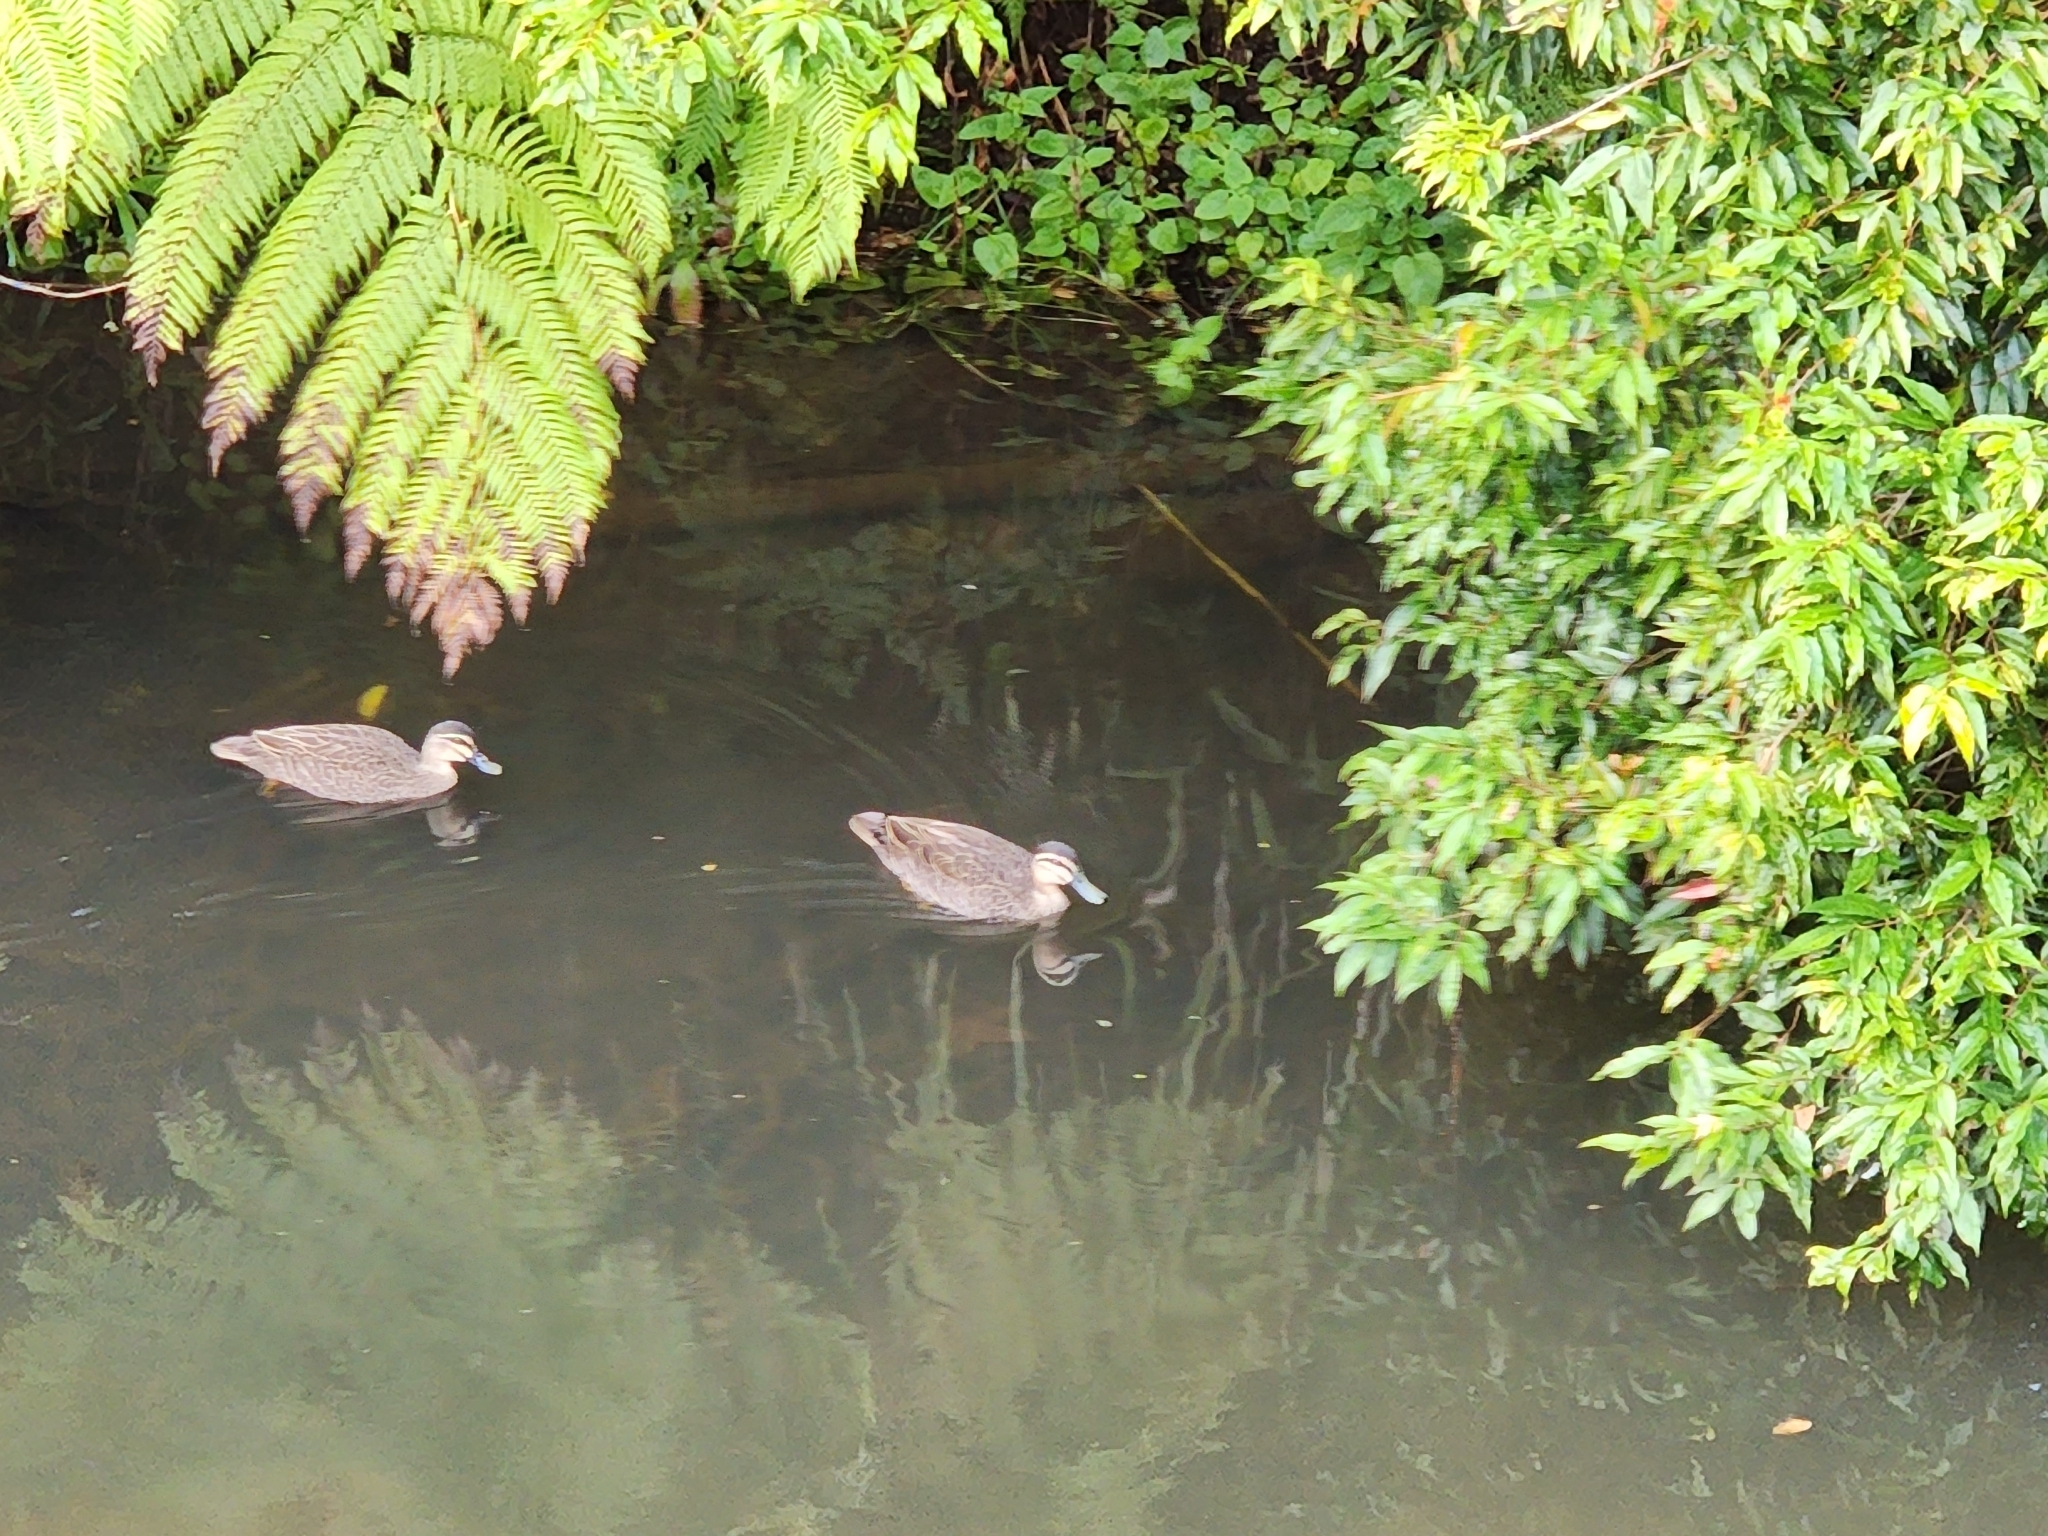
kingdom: Animalia
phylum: Chordata
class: Aves
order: Anseriformes
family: Anatidae
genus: Anas
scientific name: Anas superciliosa
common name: Pacific black duck
